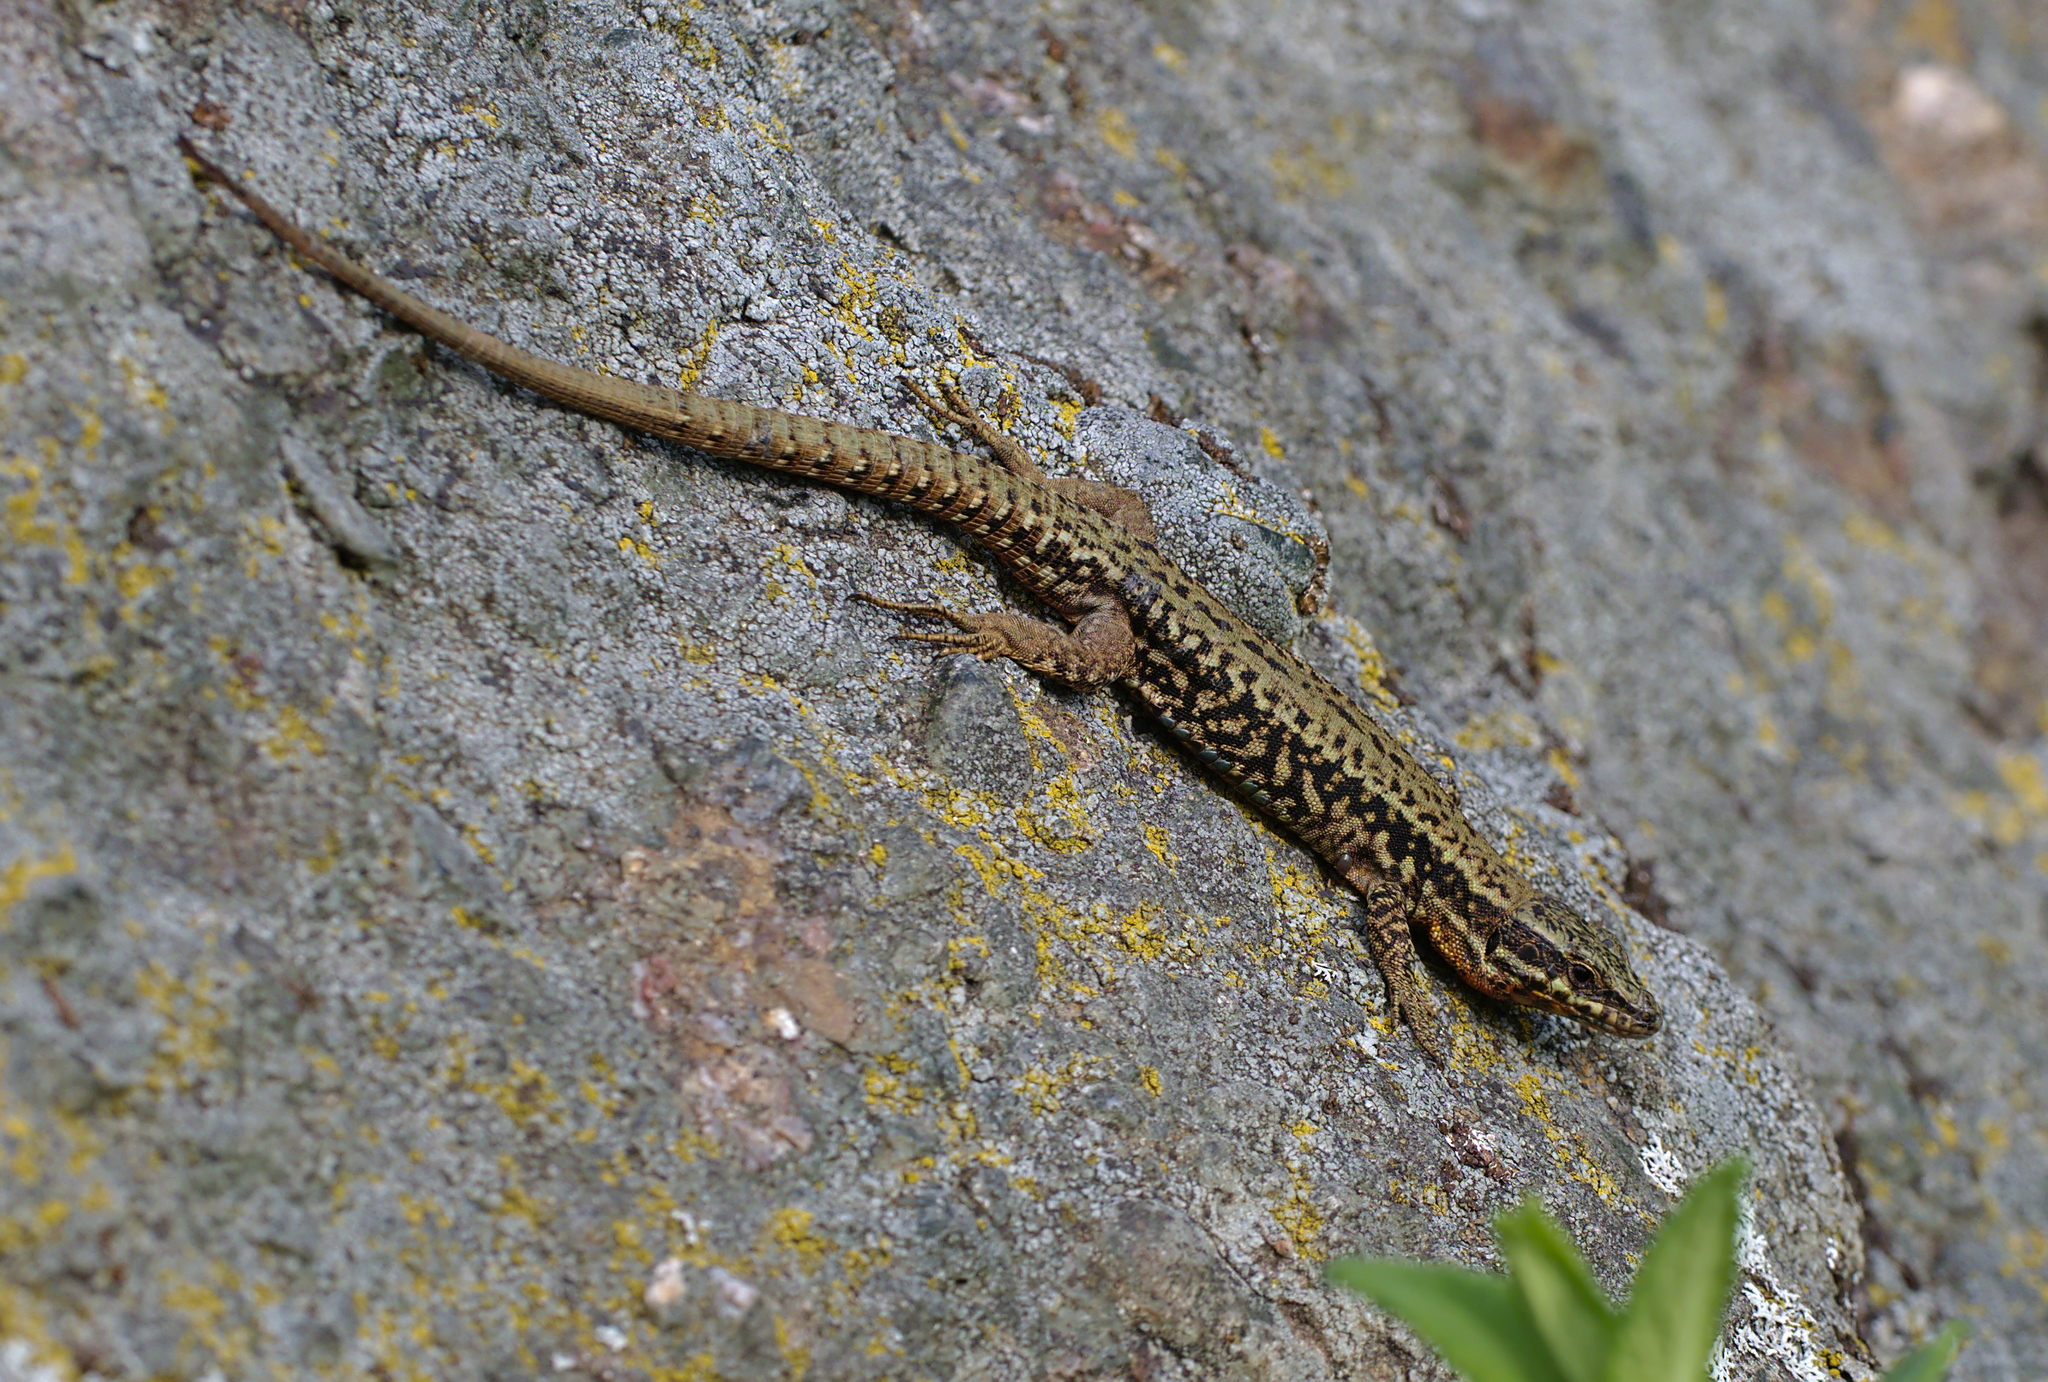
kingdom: Animalia
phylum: Chordata
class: Squamata
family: Lacertidae
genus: Podarcis
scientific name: Podarcis muralis
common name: Common wall lizard
